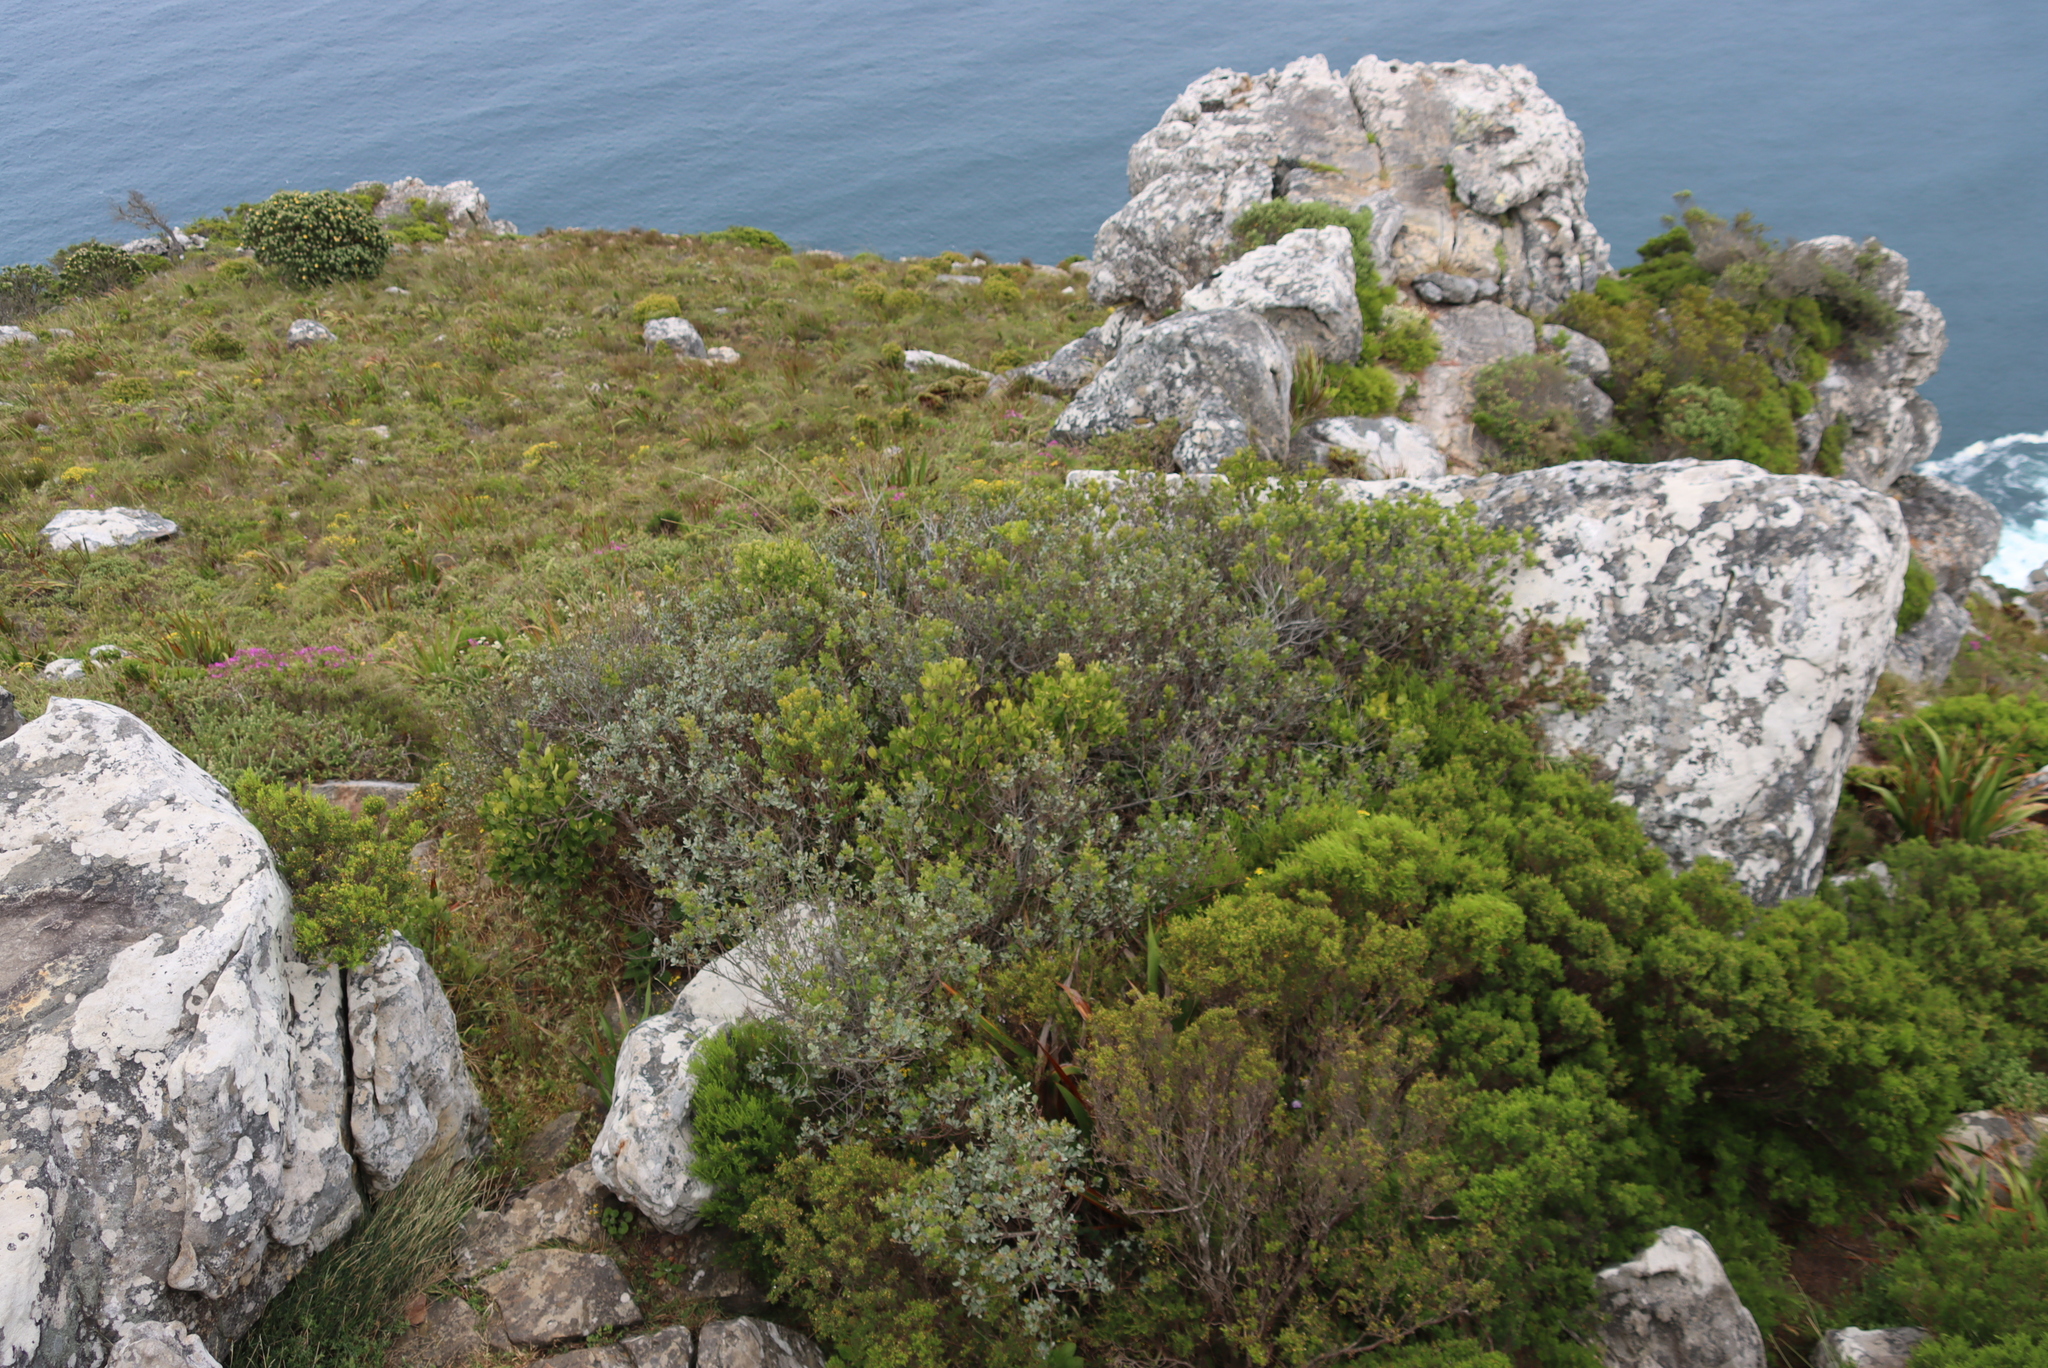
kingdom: Plantae
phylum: Tracheophyta
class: Magnoliopsida
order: Sapindales
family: Anacardiaceae
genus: Searsia
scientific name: Searsia lucida
